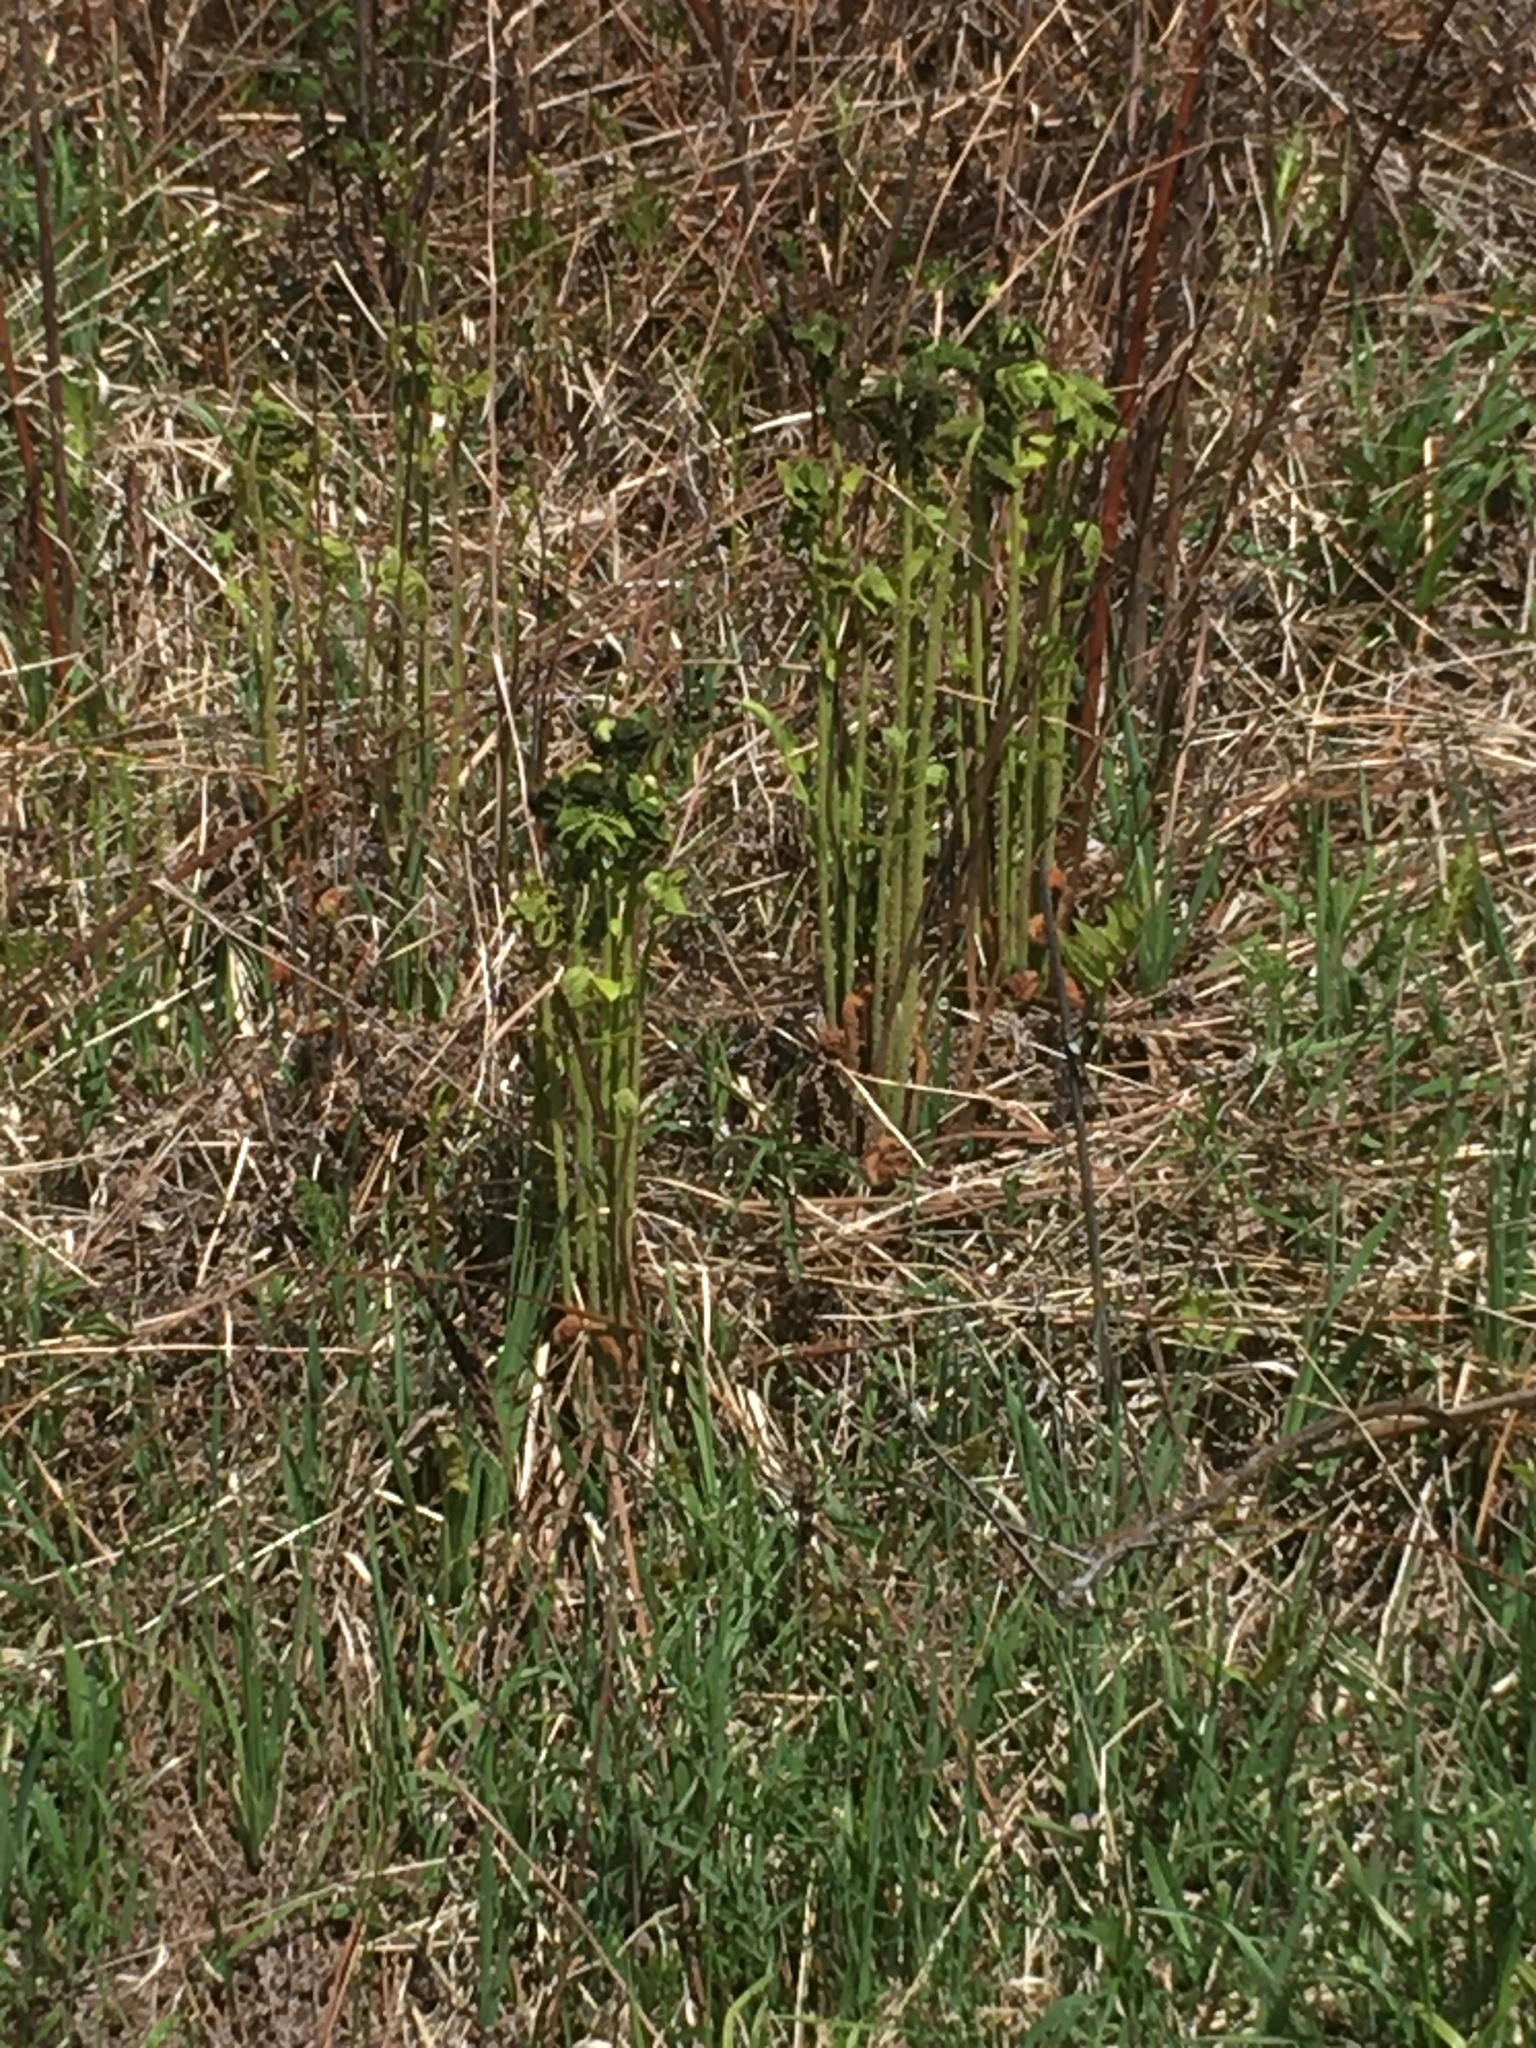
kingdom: Plantae
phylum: Tracheophyta
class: Polypodiopsida
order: Osmundales
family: Osmundaceae
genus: Claytosmunda
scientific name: Claytosmunda claytoniana
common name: Clayton's fern
